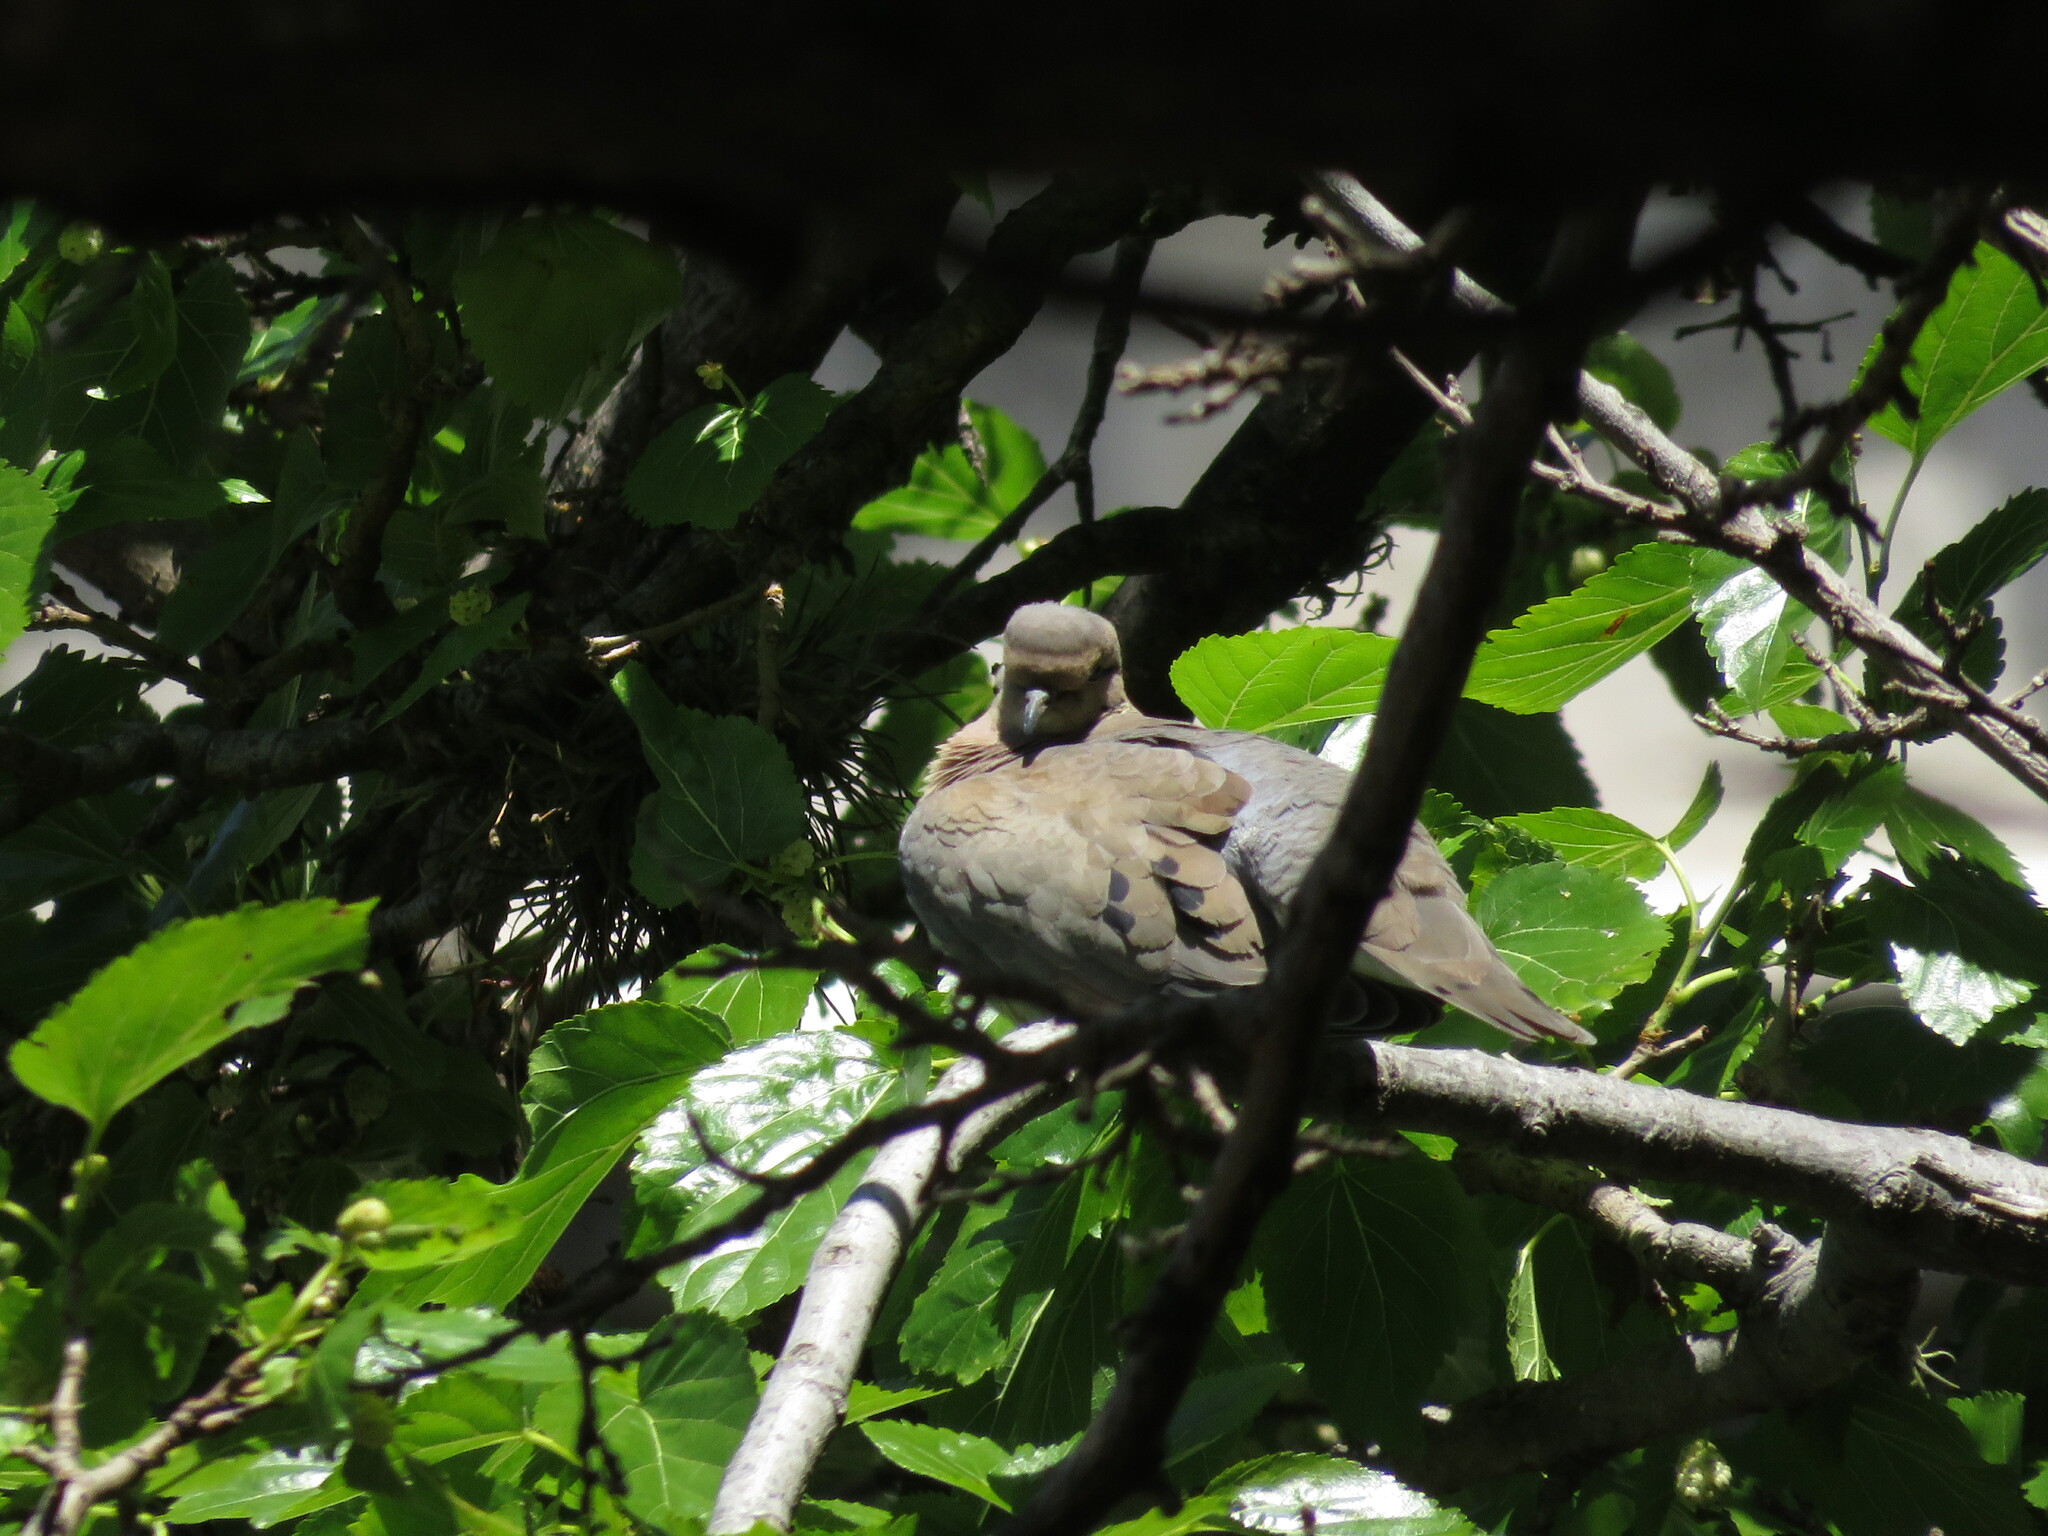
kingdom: Animalia
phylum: Chordata
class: Aves
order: Columbiformes
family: Columbidae
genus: Zenaida
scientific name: Zenaida auriculata
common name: Eared dove
